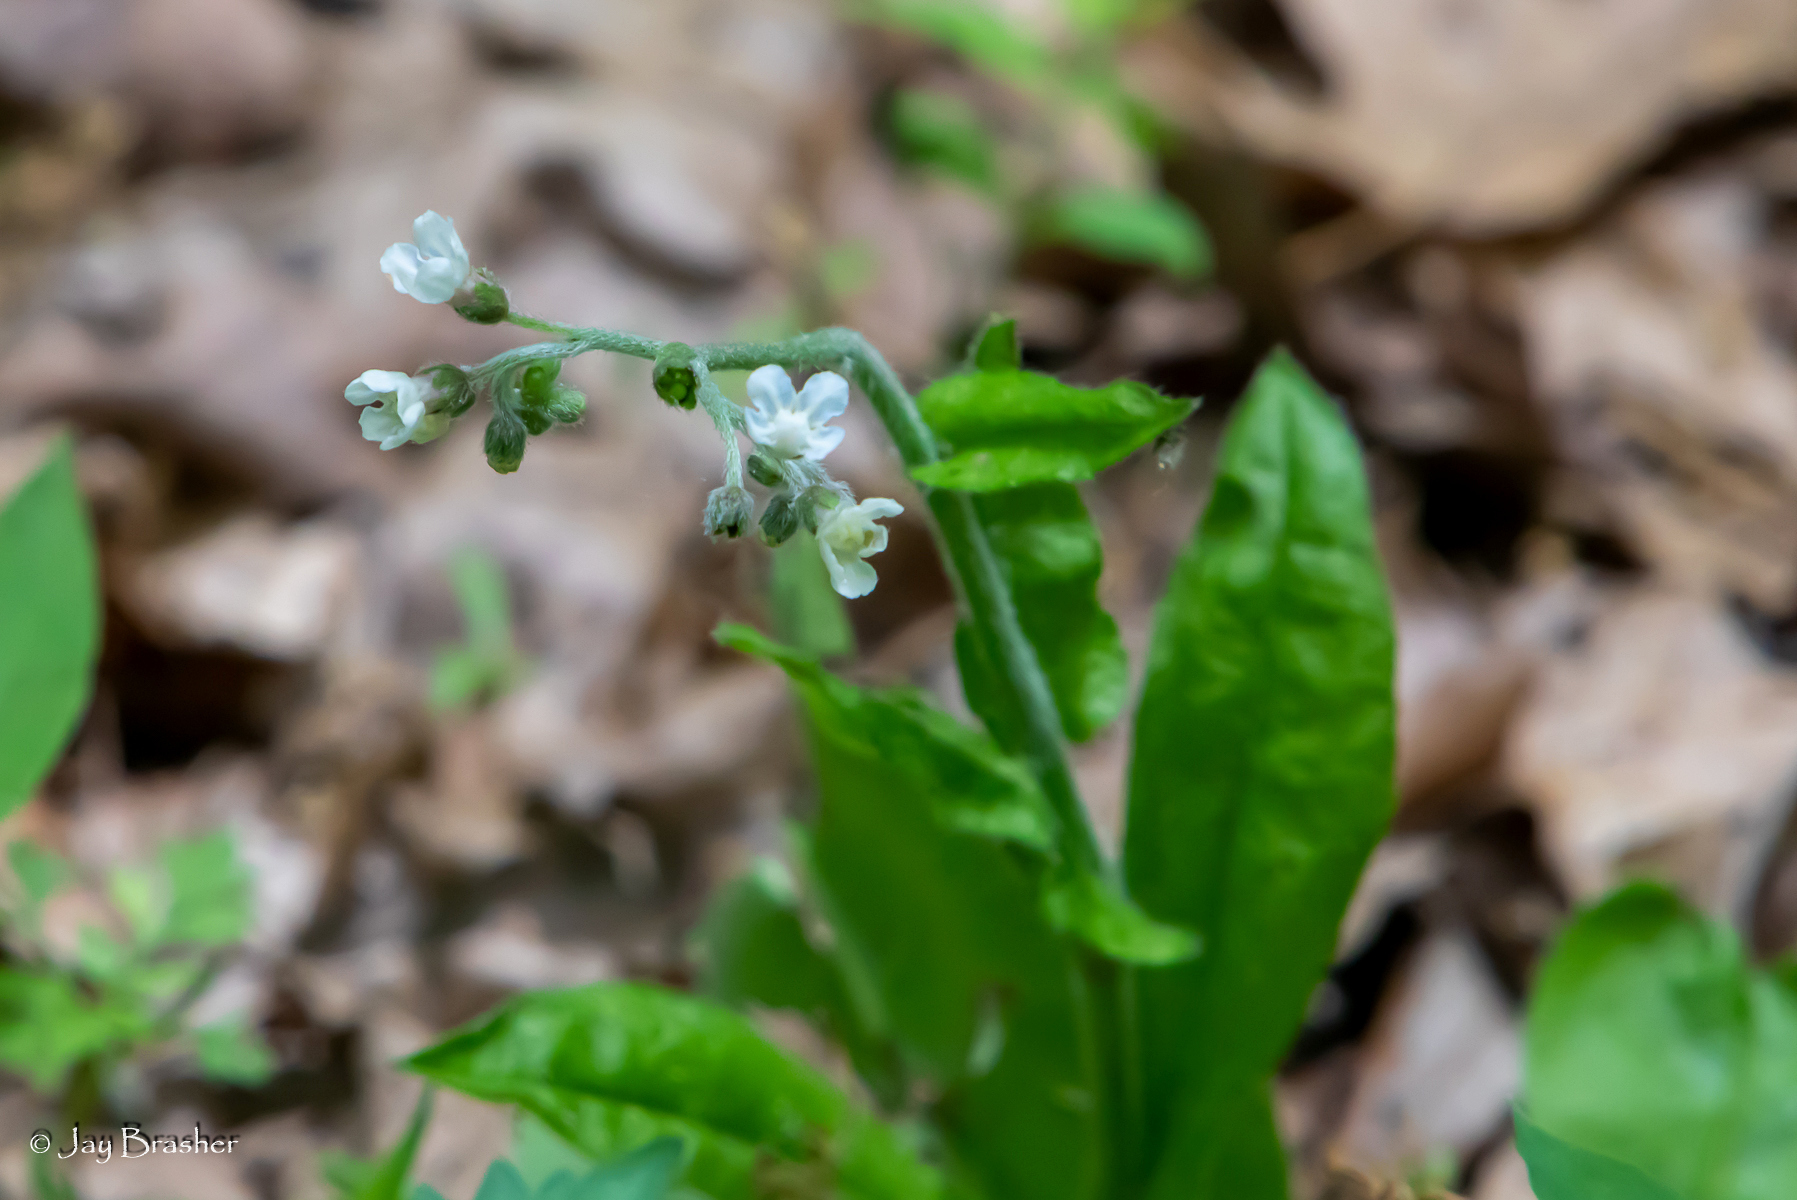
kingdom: Plantae
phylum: Tracheophyta
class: Magnoliopsida
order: Boraginales
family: Boraginaceae
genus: Andersonglossum
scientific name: Andersonglossum virginianum
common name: Wild comfrey
